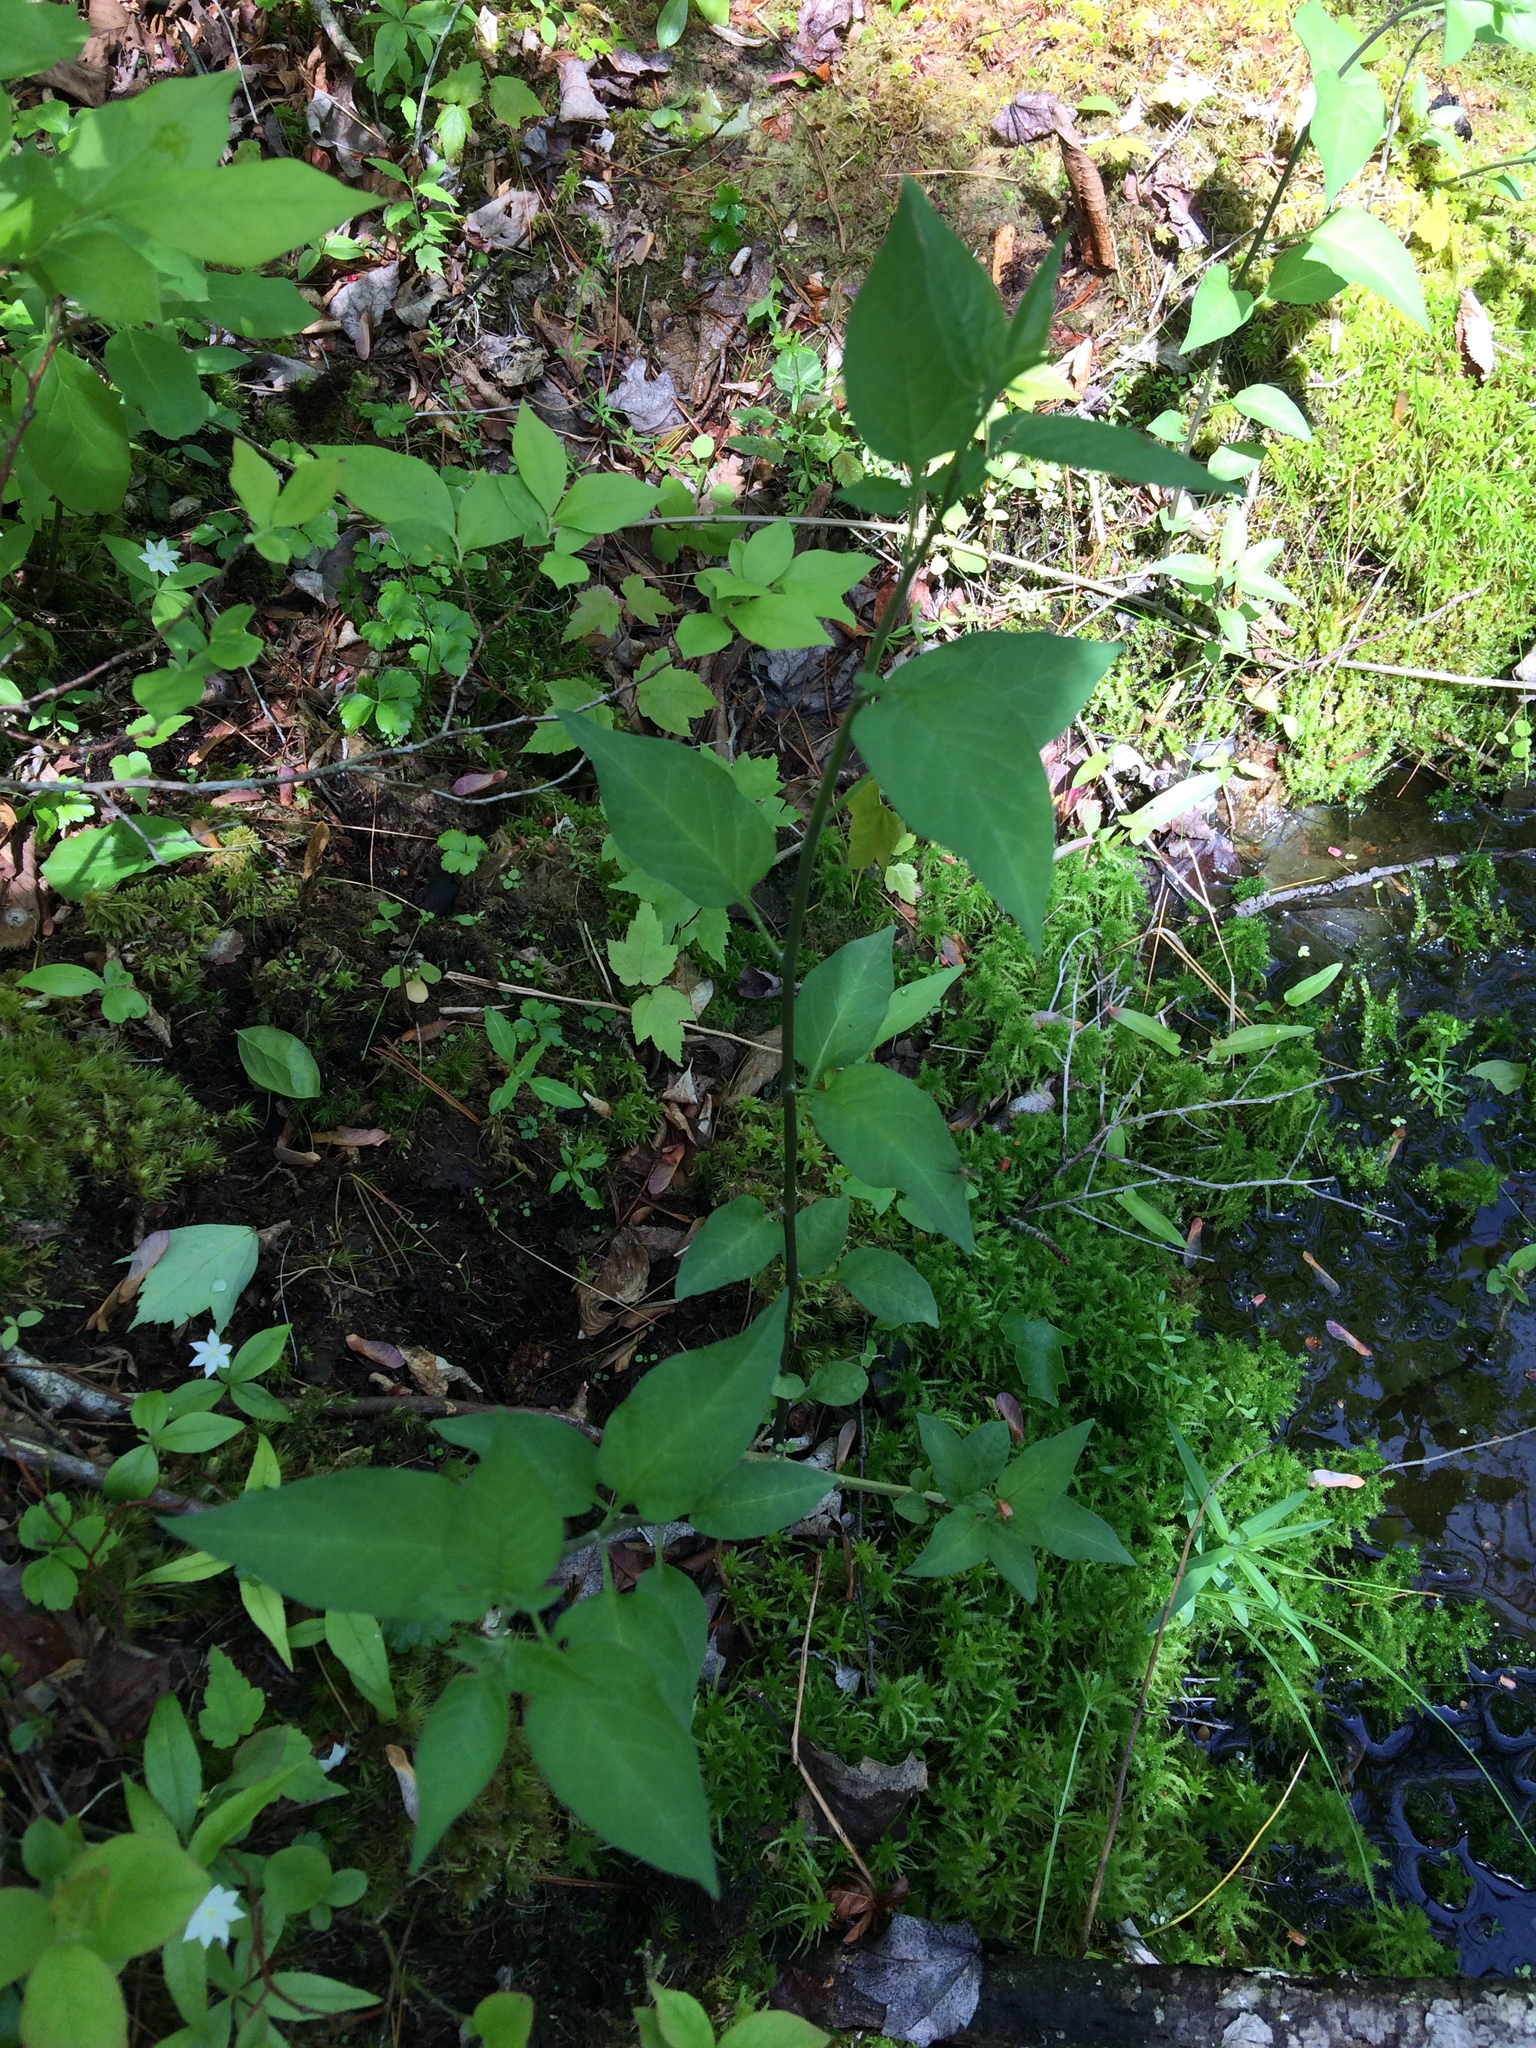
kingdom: Plantae
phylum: Tracheophyta
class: Magnoliopsida
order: Solanales
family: Solanaceae
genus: Solanum
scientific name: Solanum dulcamara
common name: Climbing nightshade
